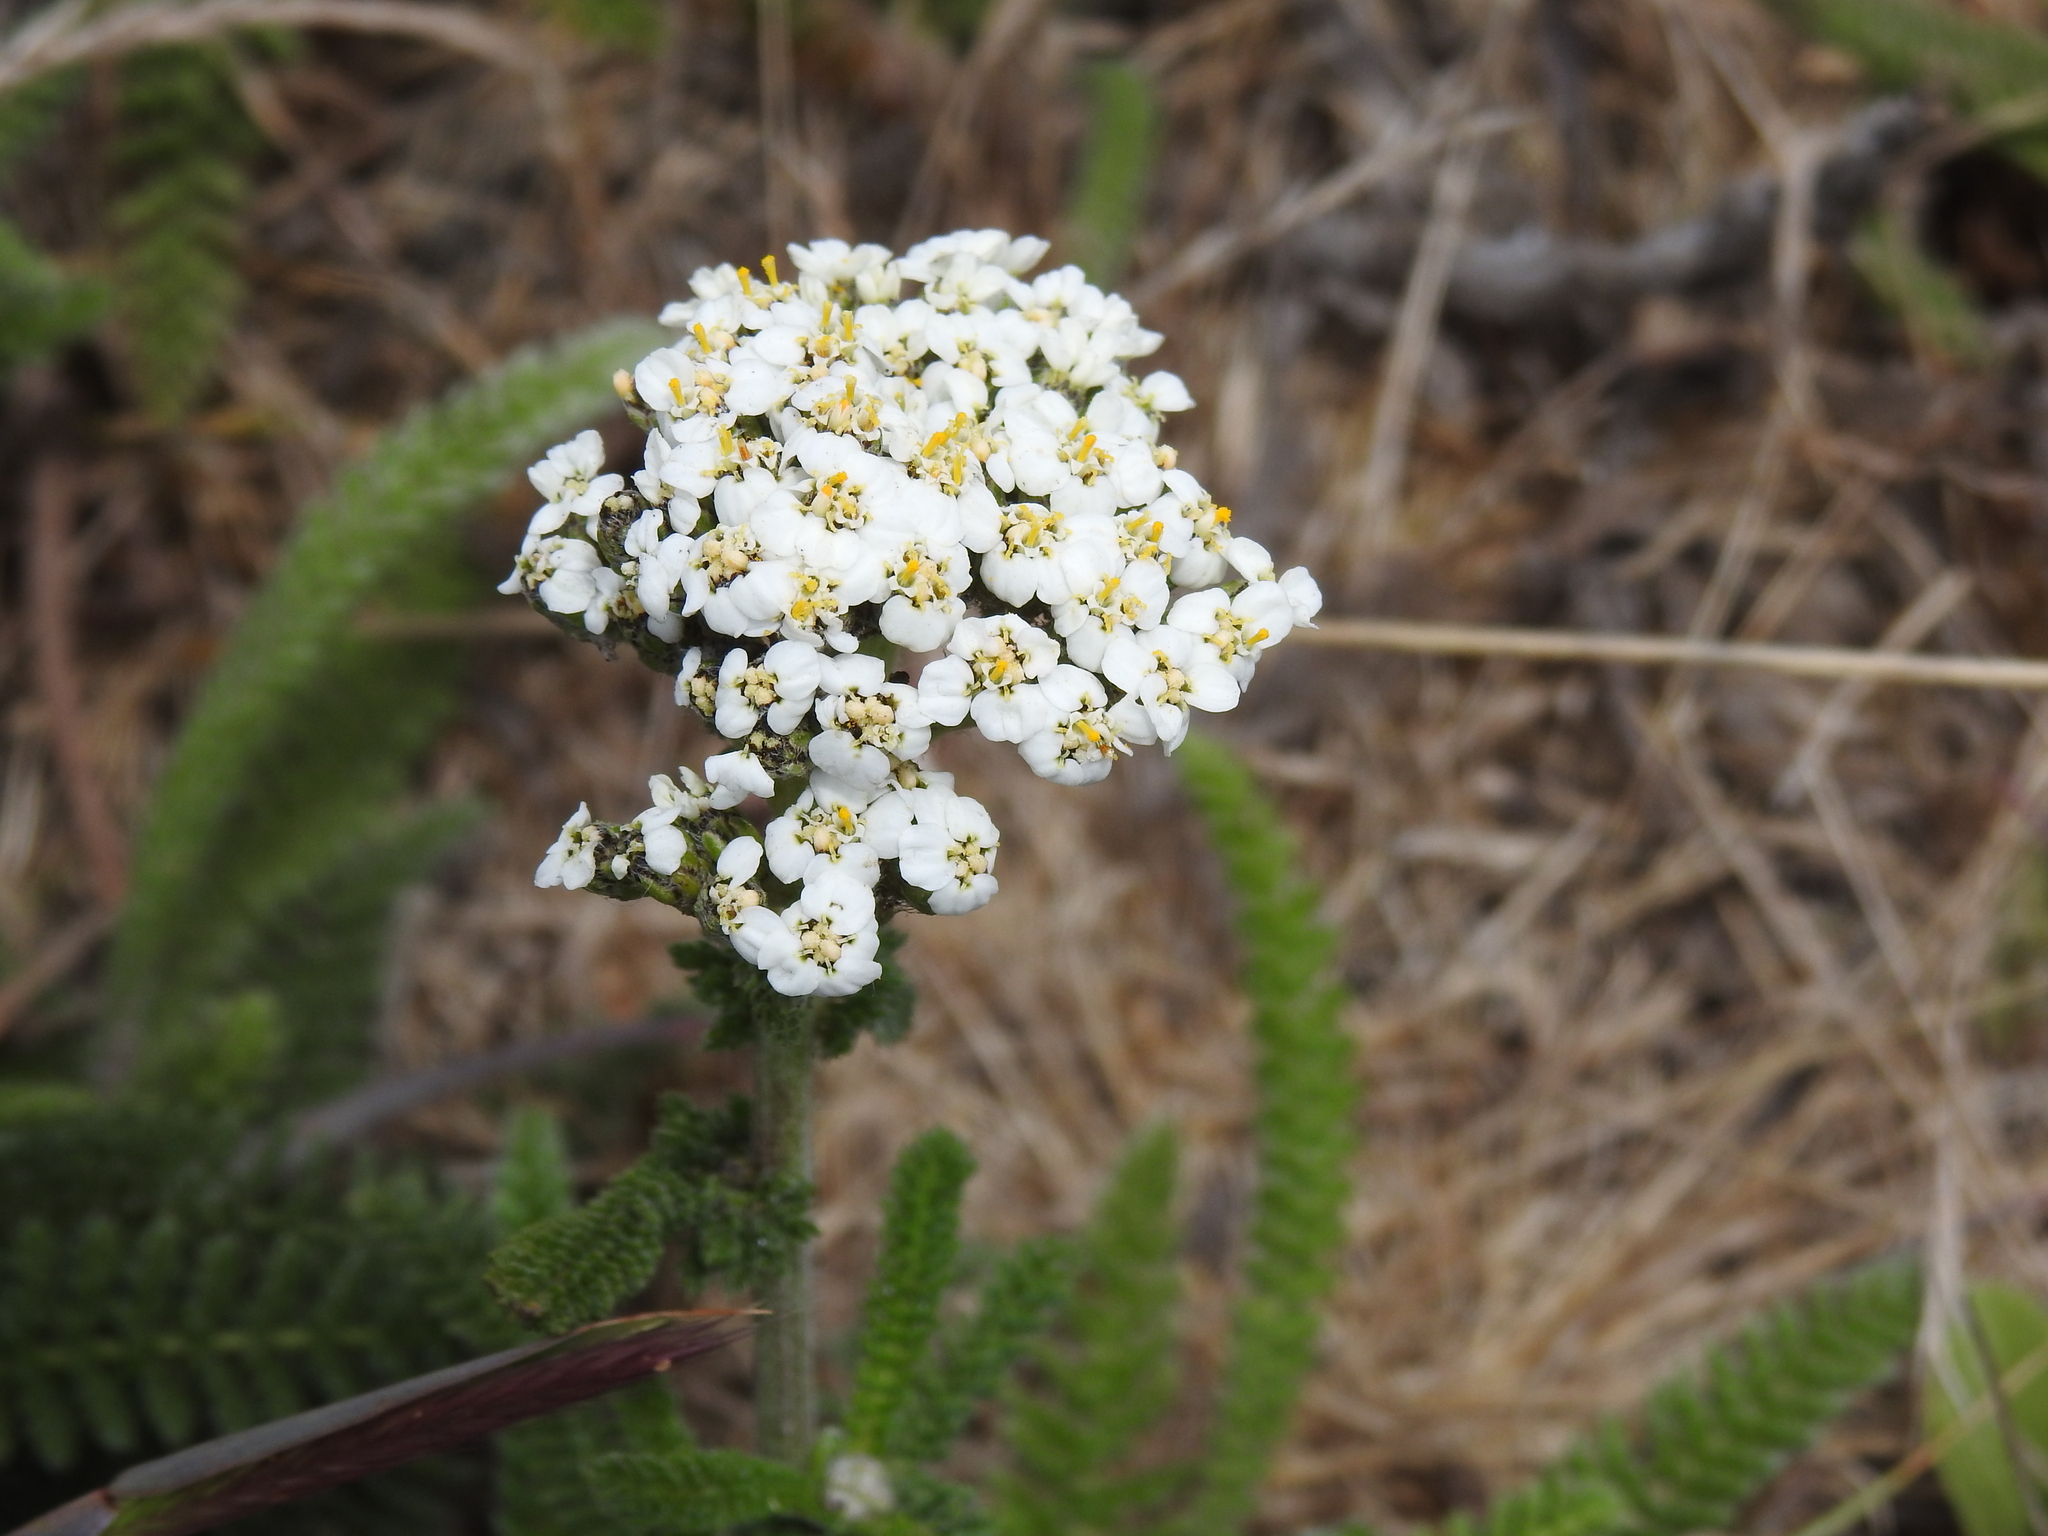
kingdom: Plantae
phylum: Tracheophyta
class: Magnoliopsida
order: Asterales
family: Asteraceae
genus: Achillea
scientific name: Achillea millefolium
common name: Yarrow
